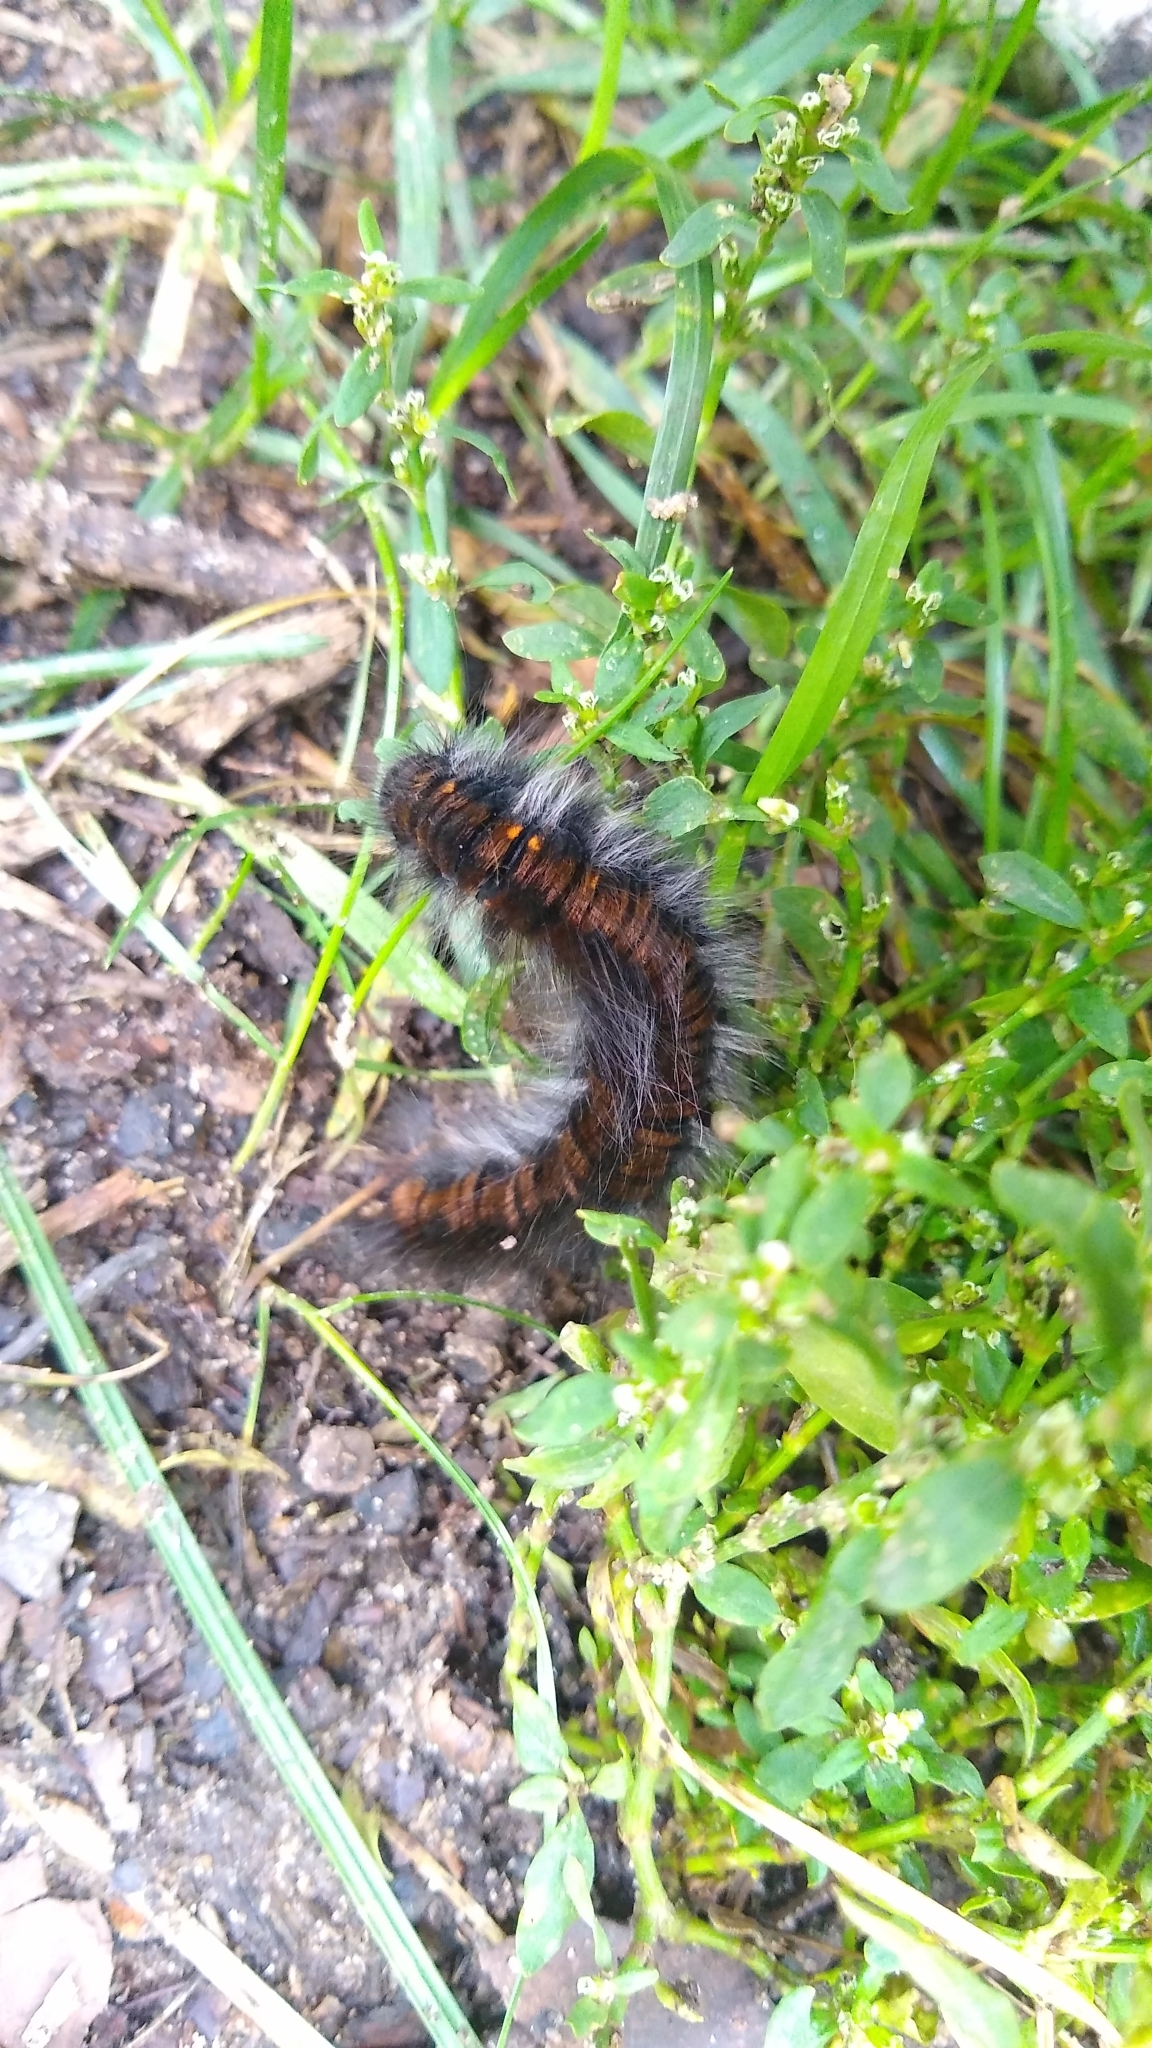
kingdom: Animalia
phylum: Arthropoda
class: Insecta
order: Lepidoptera
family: Lasiocampidae
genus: Macrothylacia
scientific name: Macrothylacia rubi
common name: Fox moth
